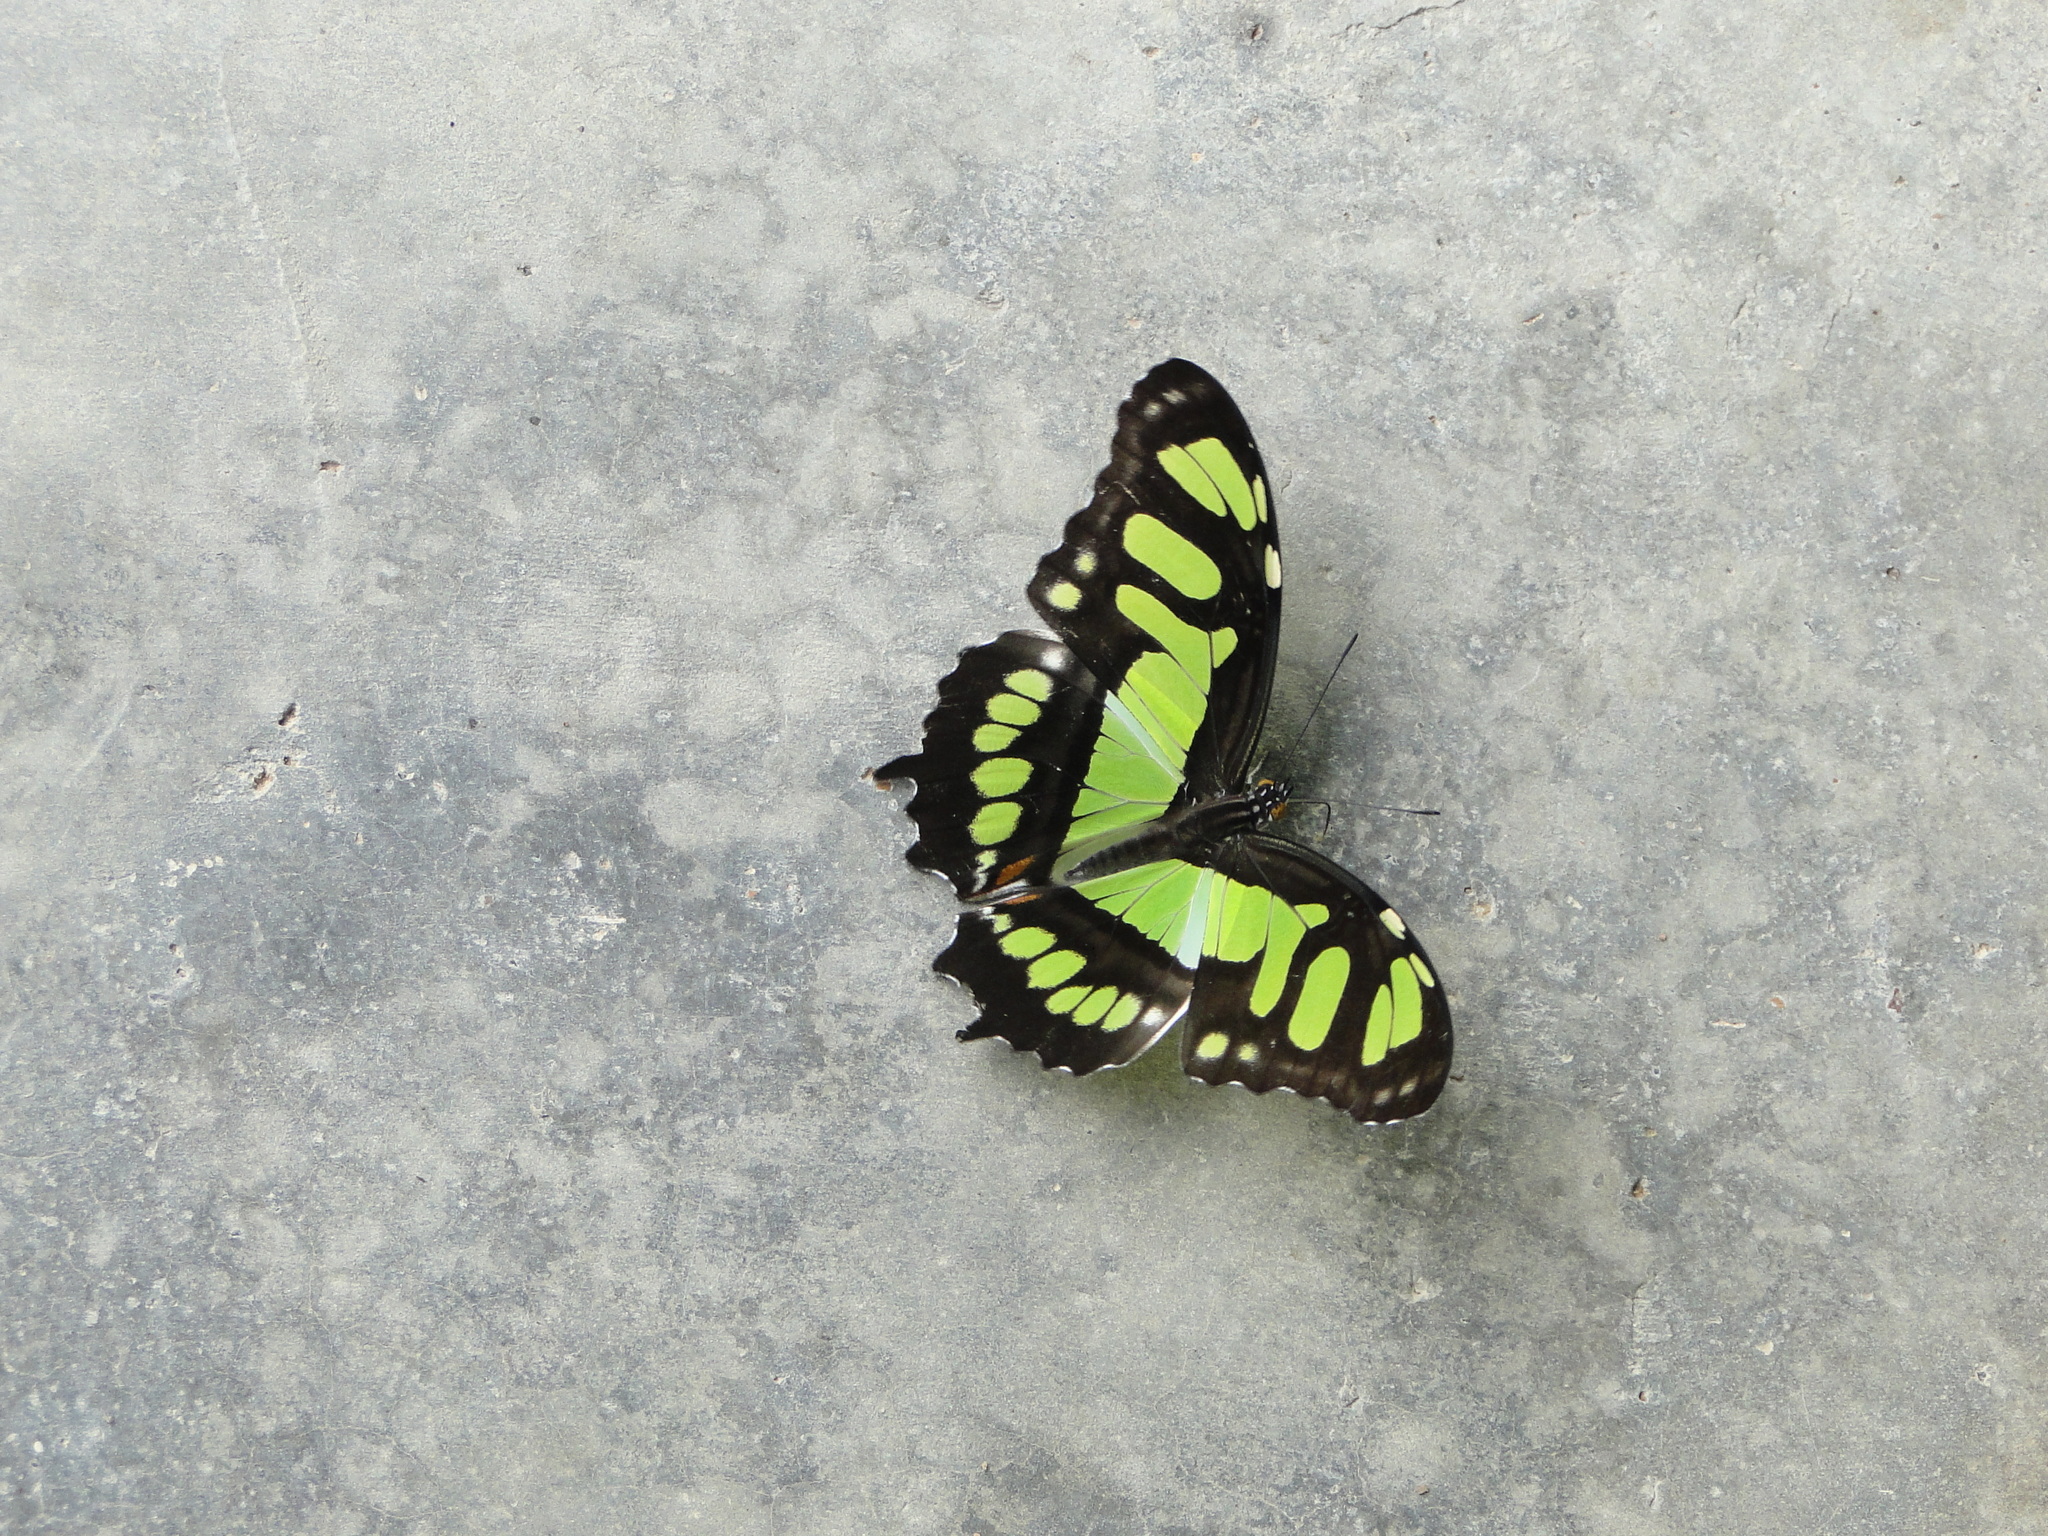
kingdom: Animalia
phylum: Arthropoda
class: Insecta
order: Lepidoptera
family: Nymphalidae
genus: Siproeta
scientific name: Siproeta stelenes
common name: Malachite
